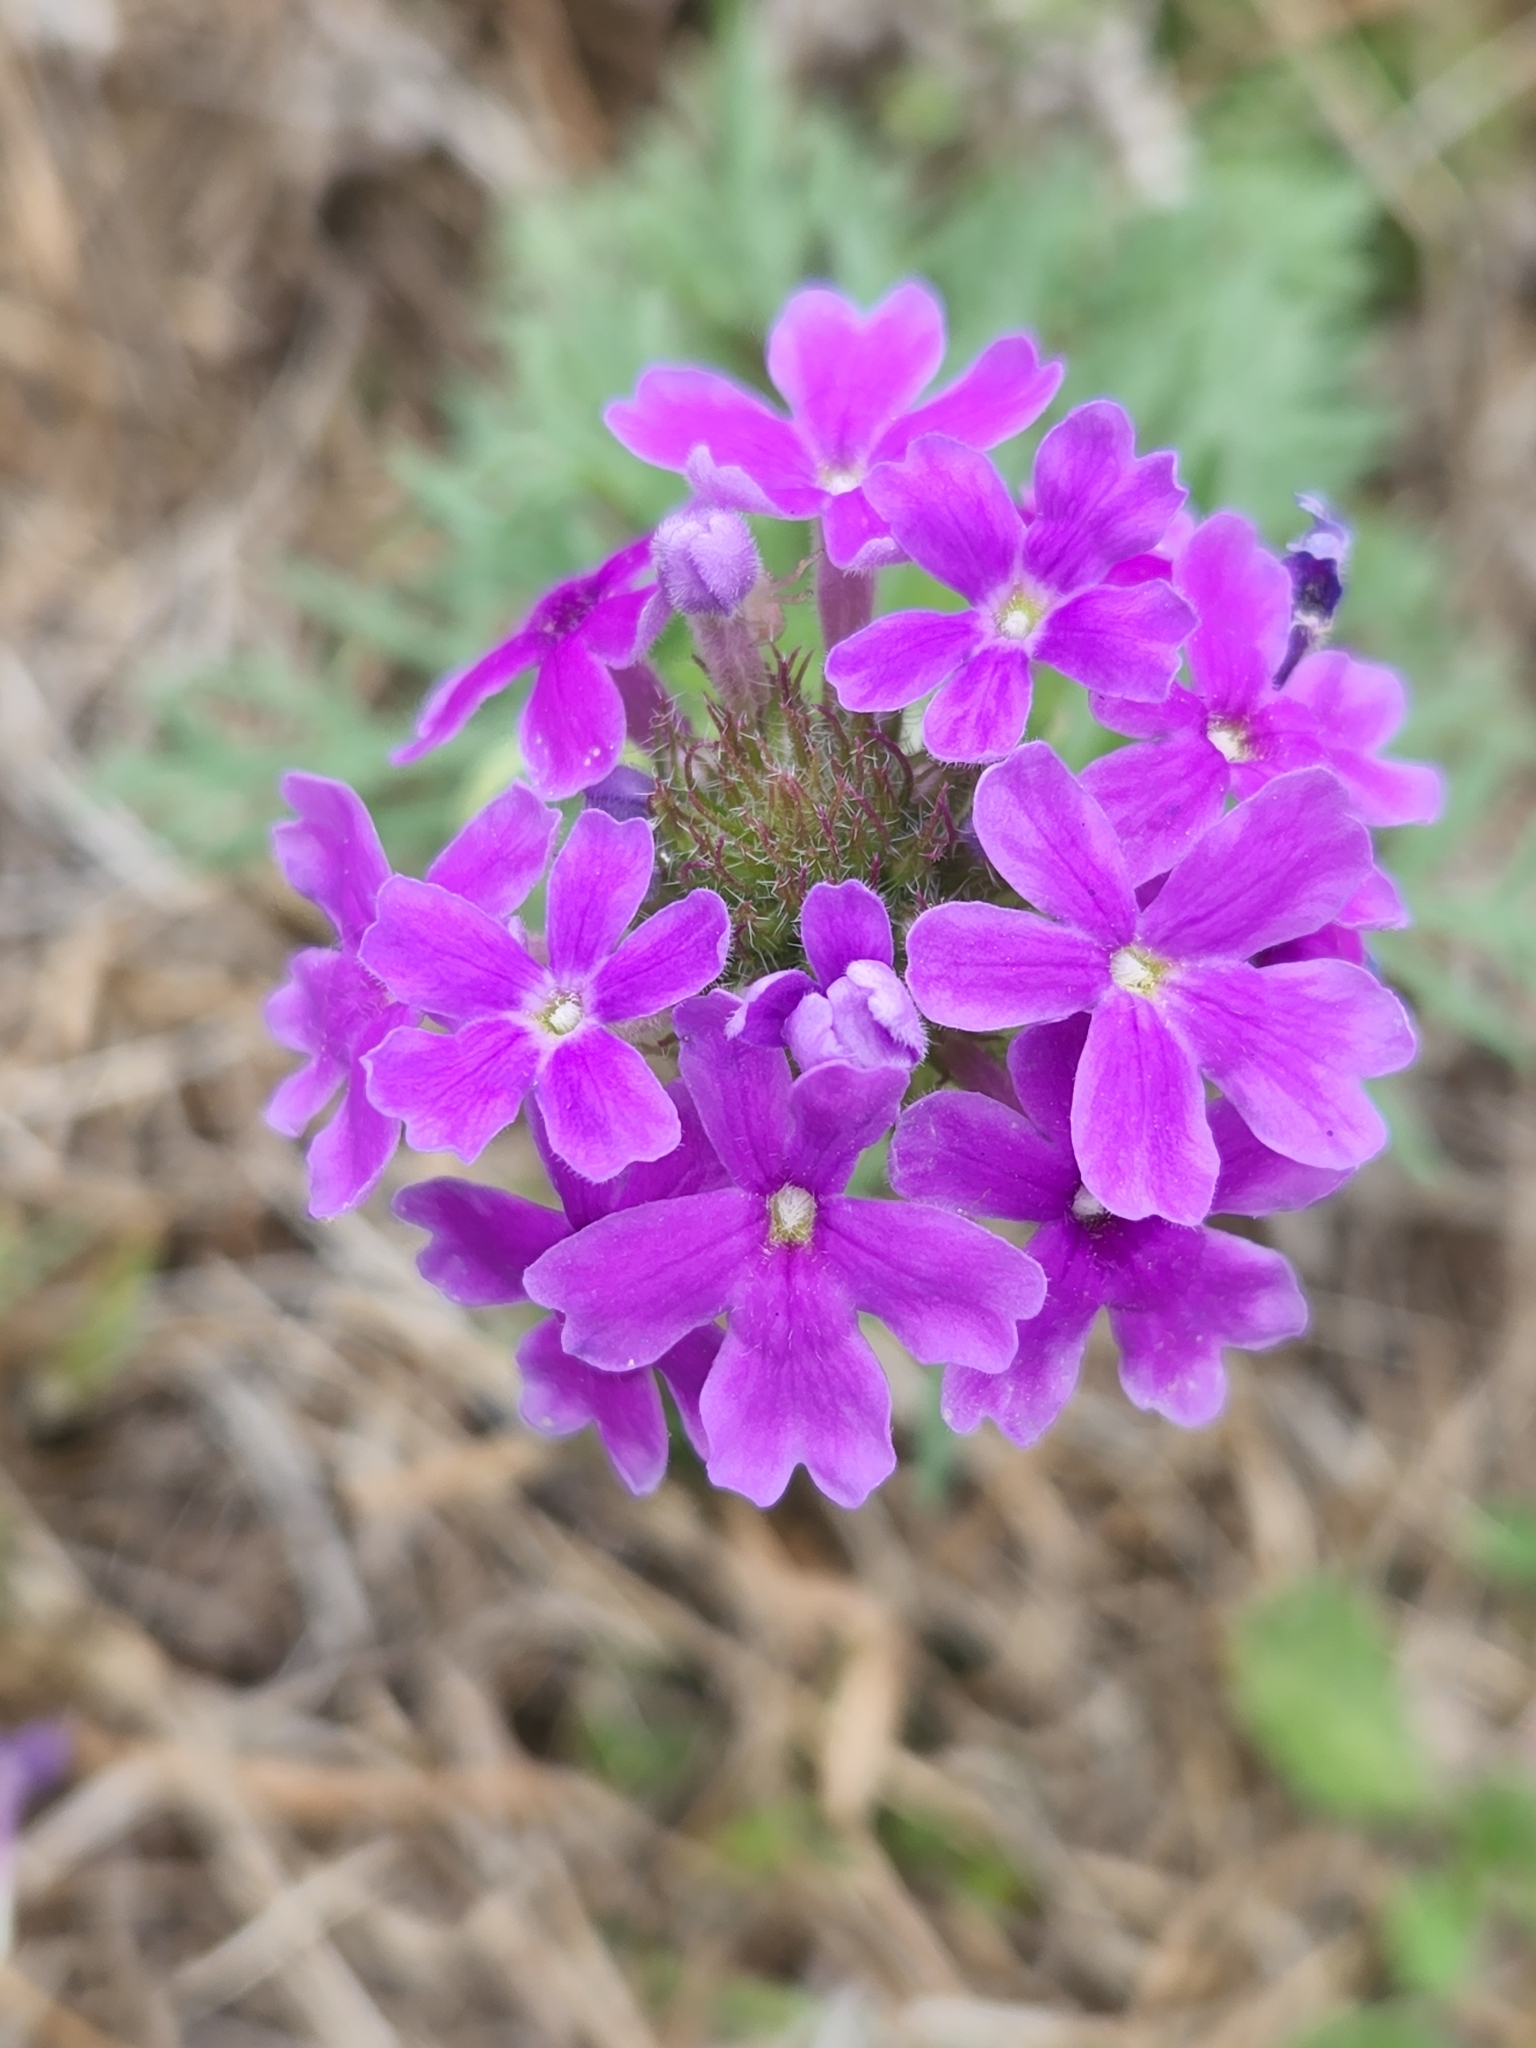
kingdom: Plantae
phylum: Tracheophyta
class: Magnoliopsida
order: Lamiales
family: Verbenaceae
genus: Verbena
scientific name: Verbena bipinnatifida
